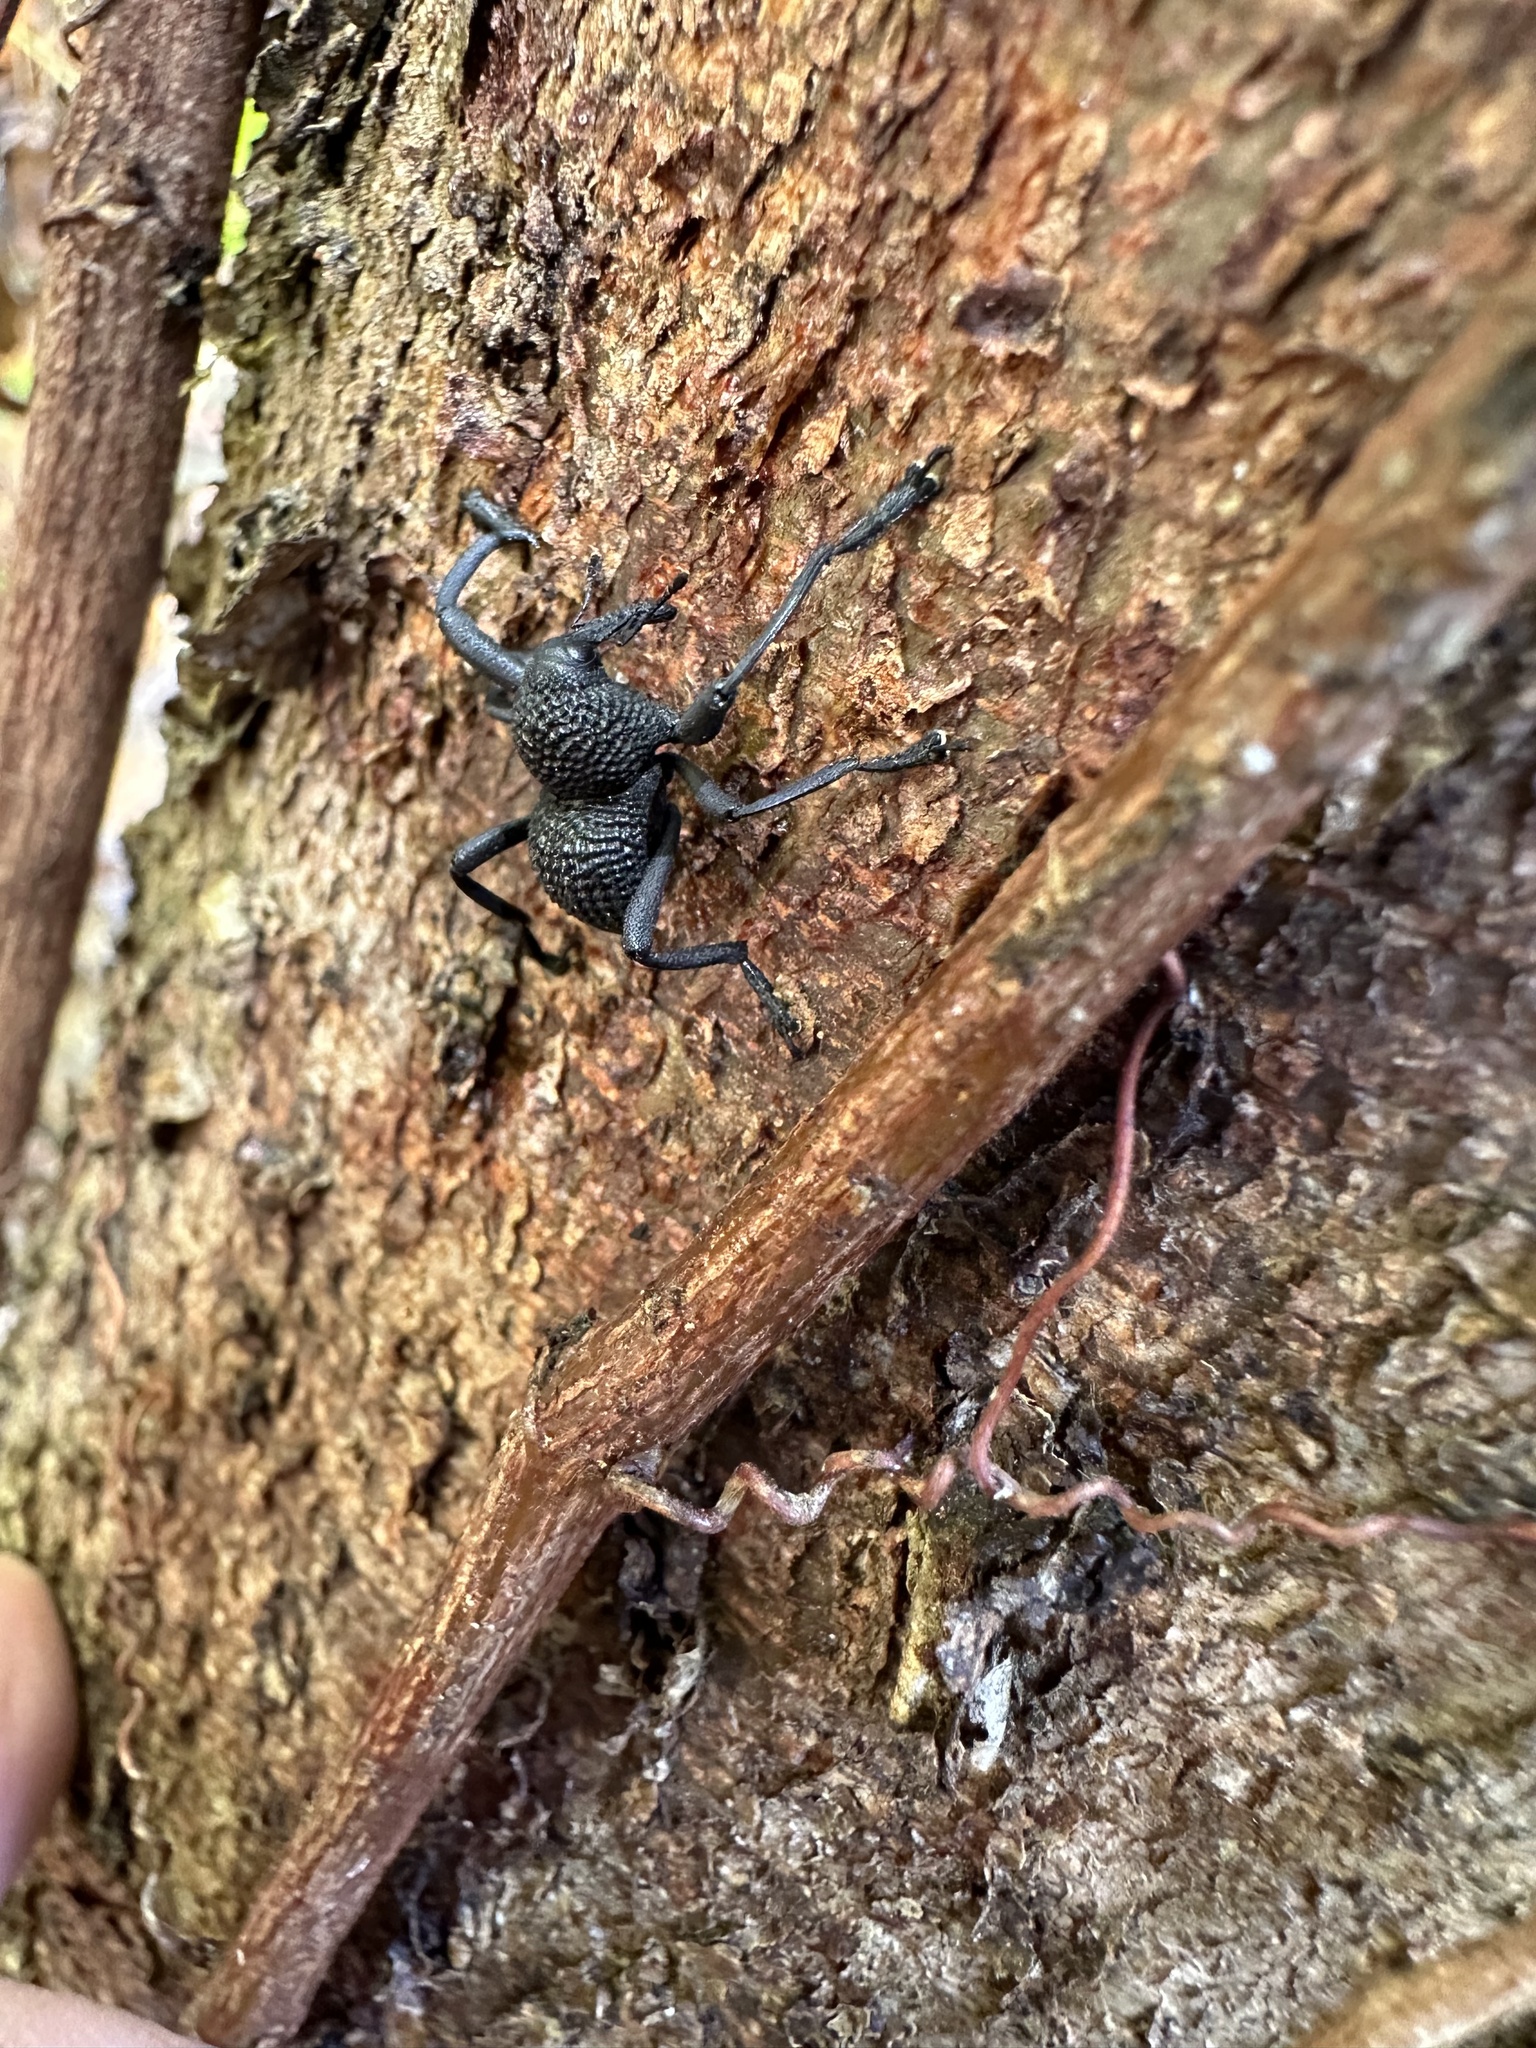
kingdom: Animalia
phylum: Arthropoda
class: Insecta
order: Coleoptera
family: Curculionidae
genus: Rhyephenes
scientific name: Rhyephenes maillei
